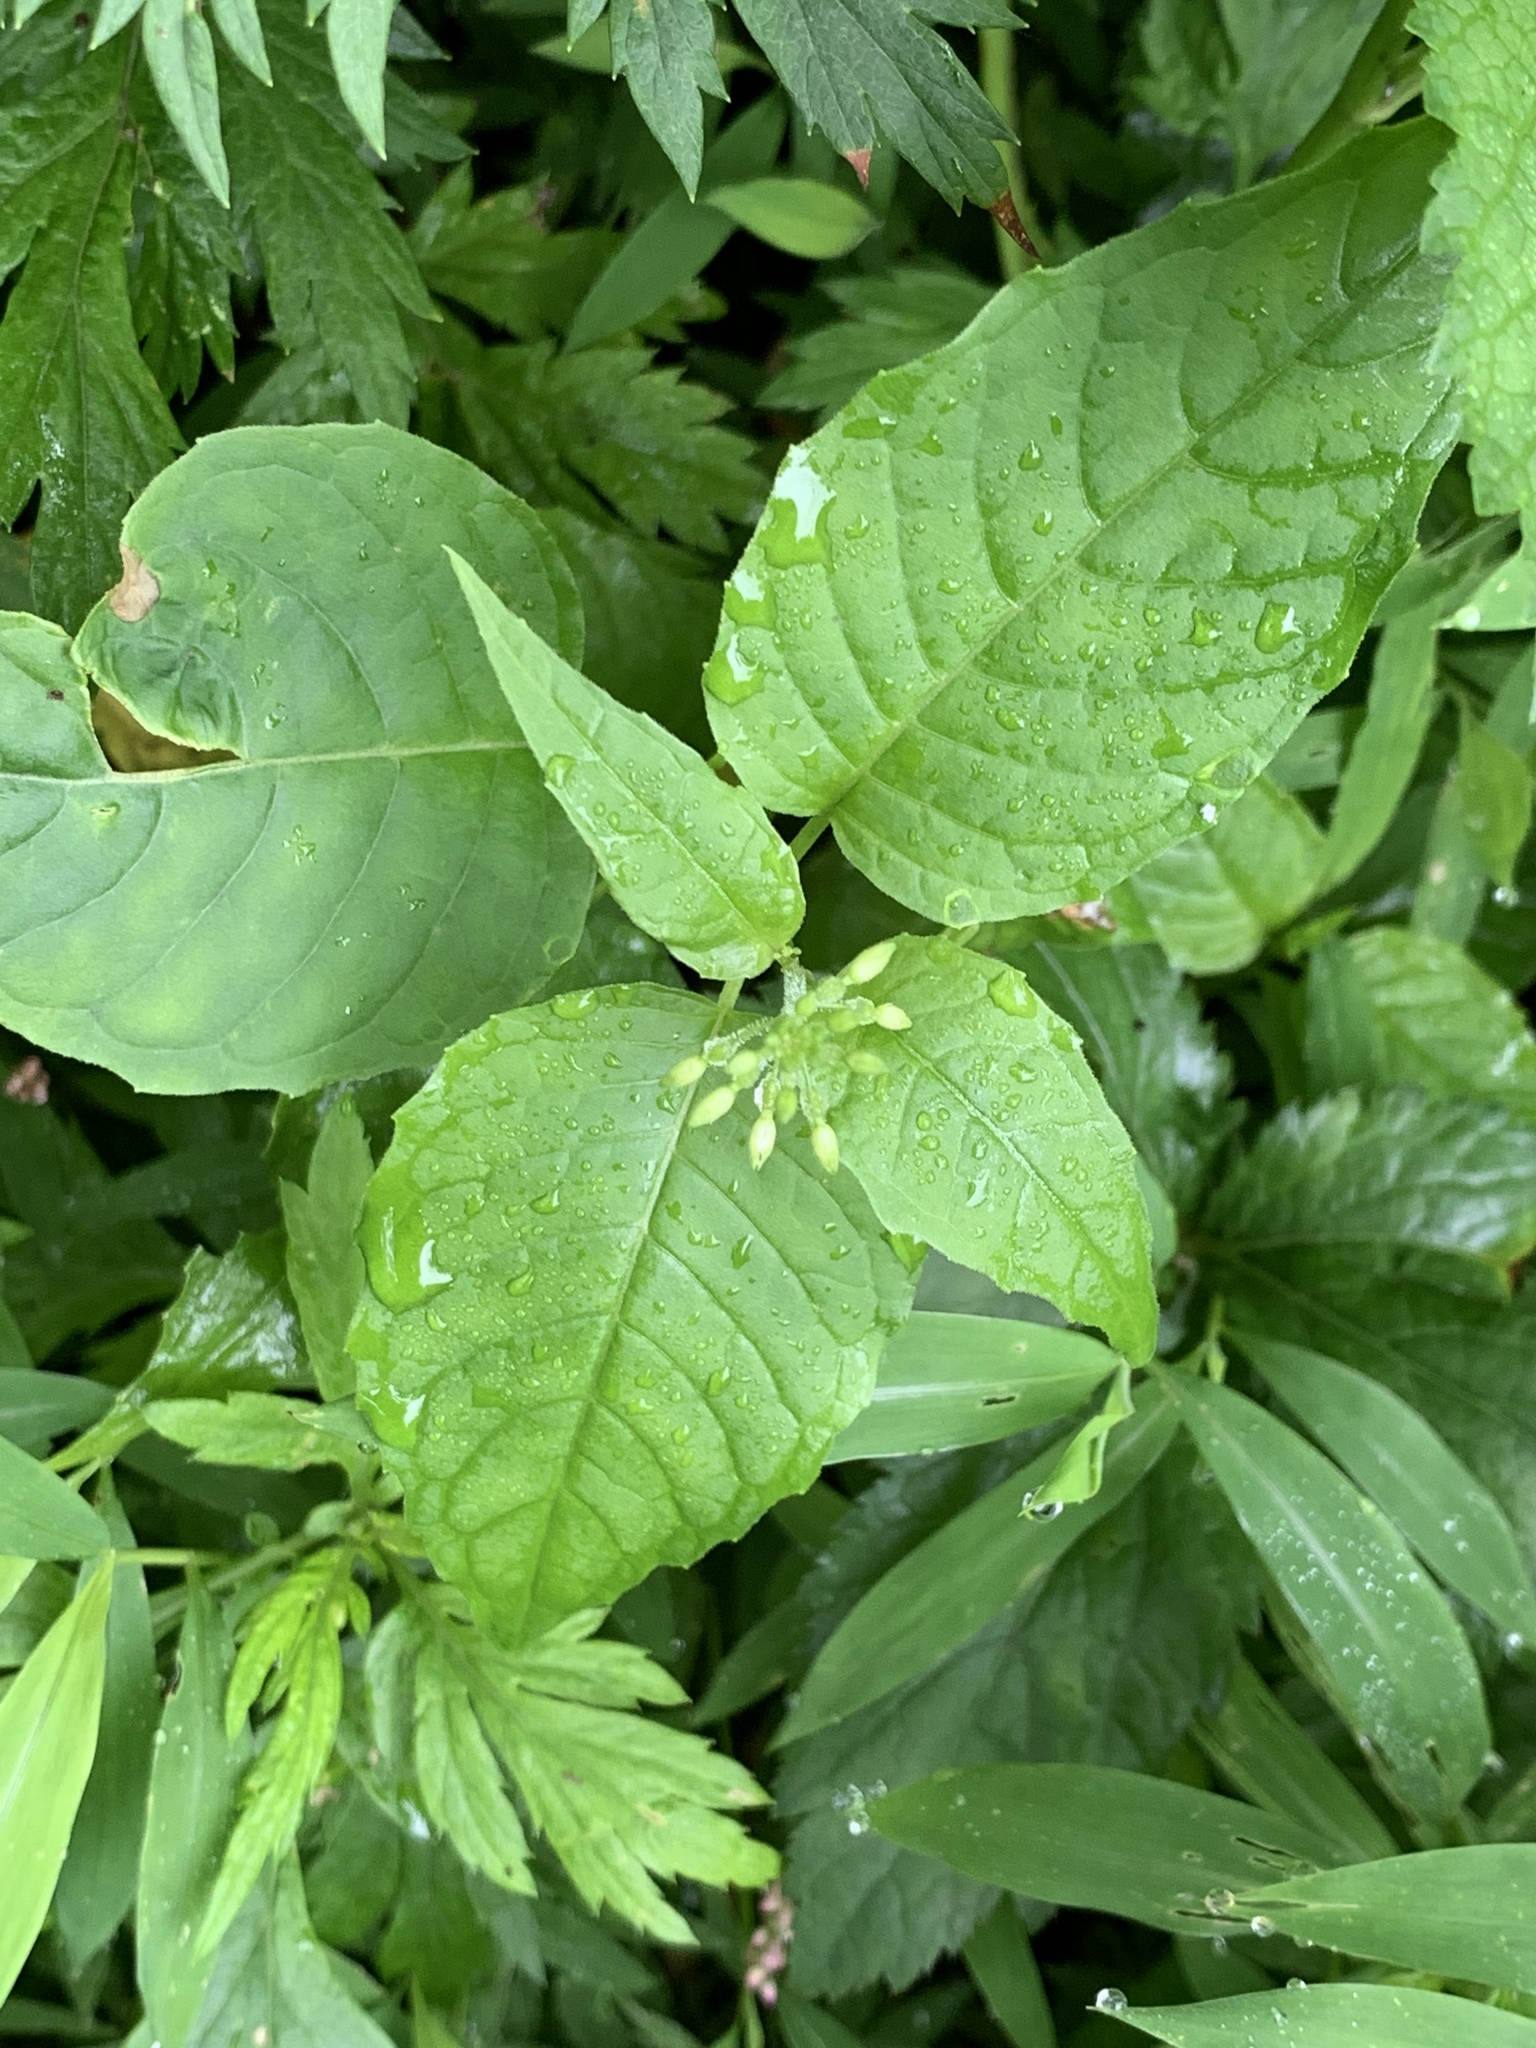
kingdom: Plantae
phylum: Tracheophyta
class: Magnoliopsida
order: Myrtales
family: Onagraceae
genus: Circaea
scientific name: Circaea canadensis
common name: Broad-leaved enchanter's nightshade
